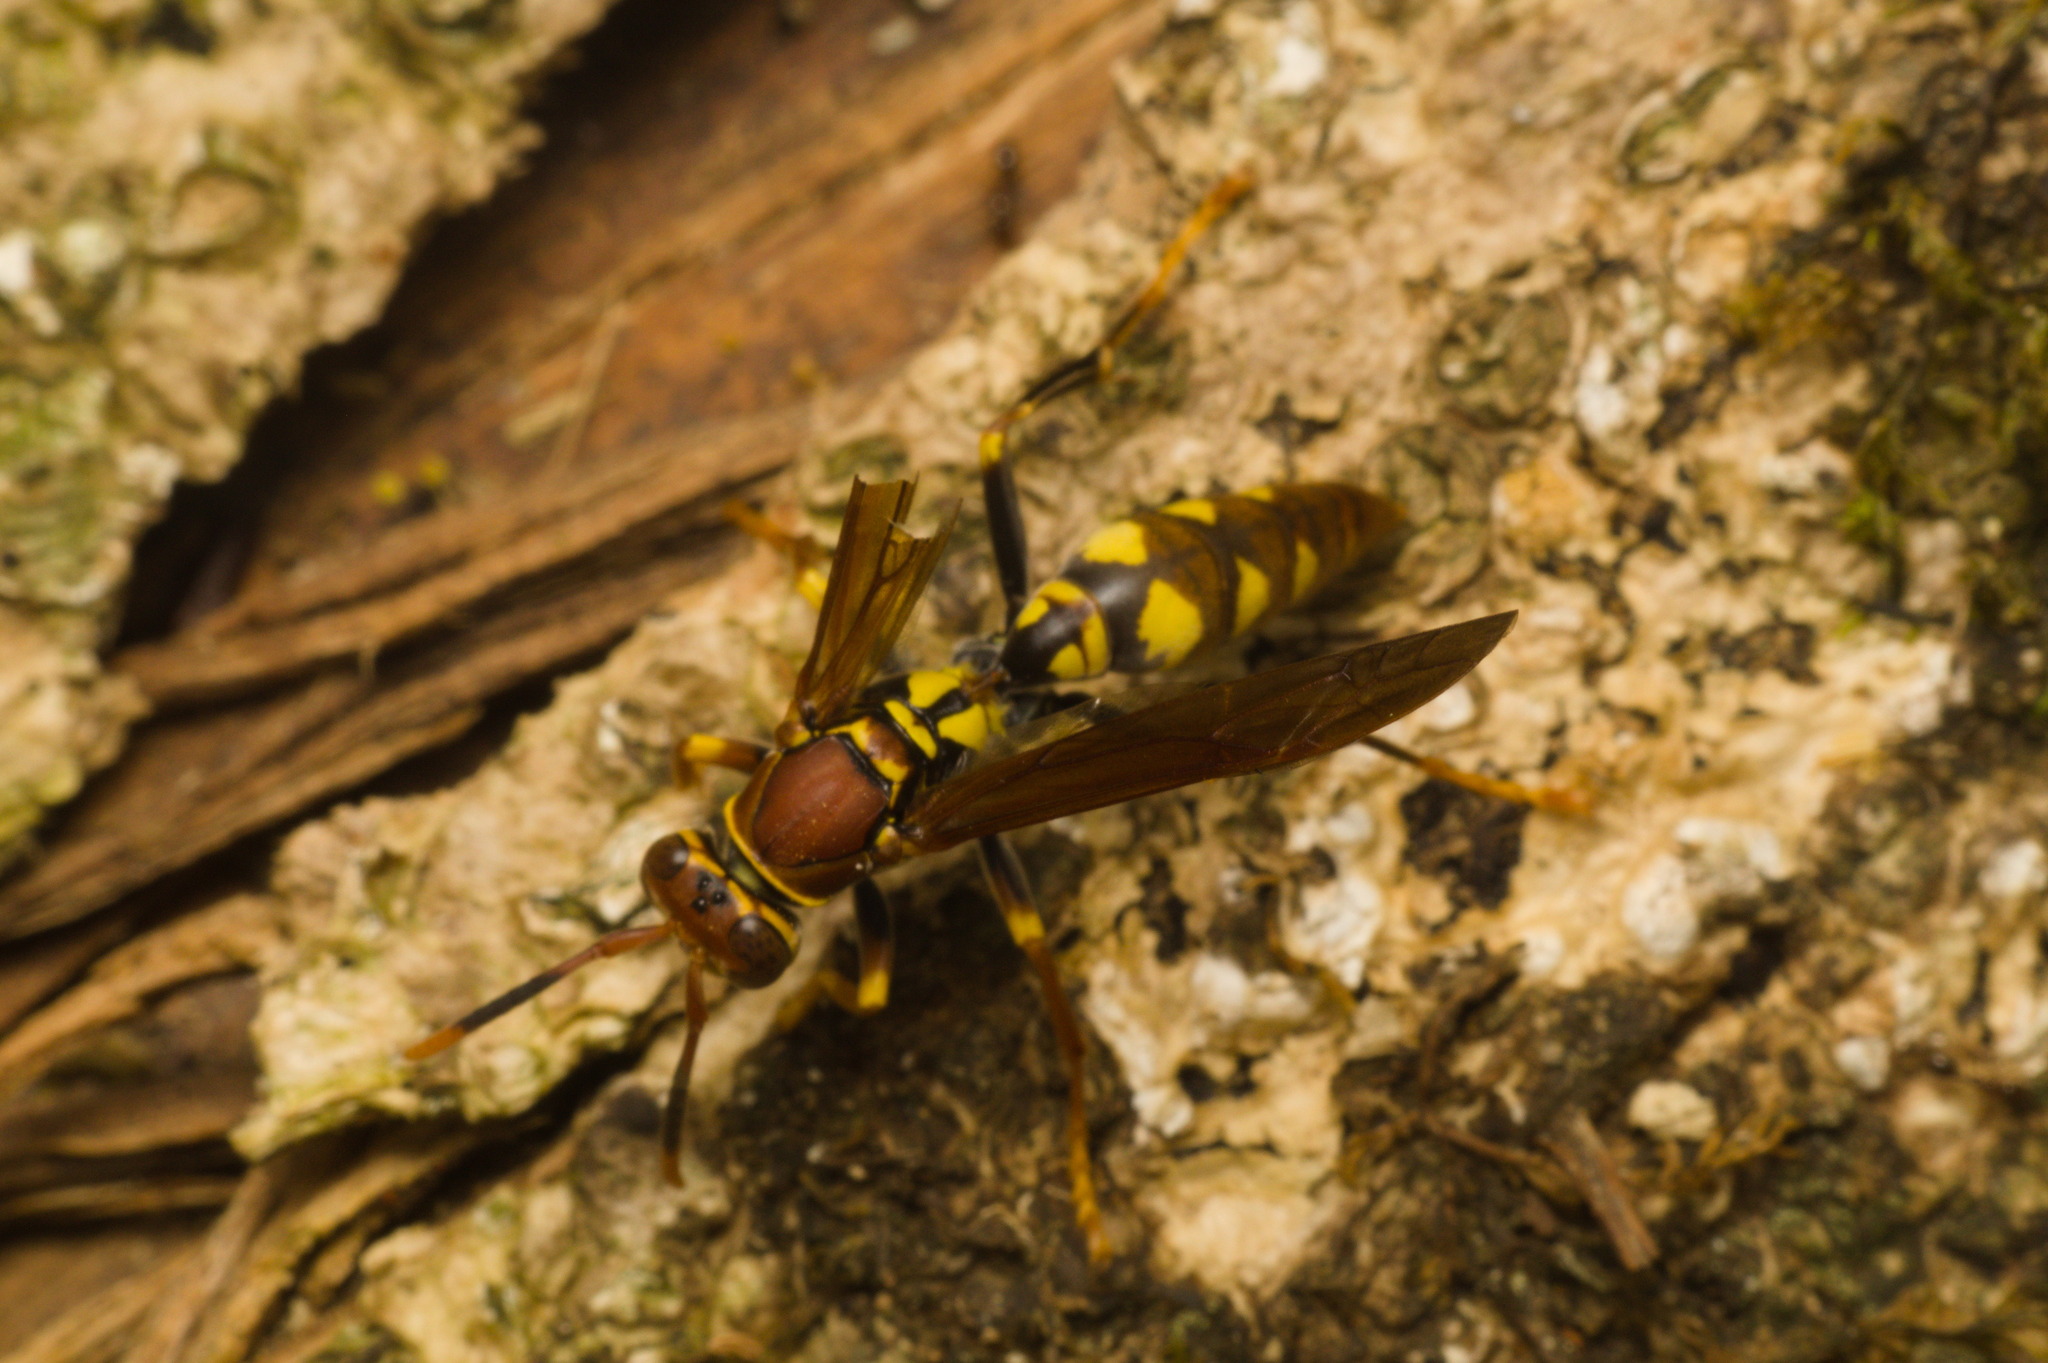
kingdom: Animalia
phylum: Arthropoda
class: Insecta
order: Hymenoptera
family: Eumenidae
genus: Polistes
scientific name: Polistes versicolor
